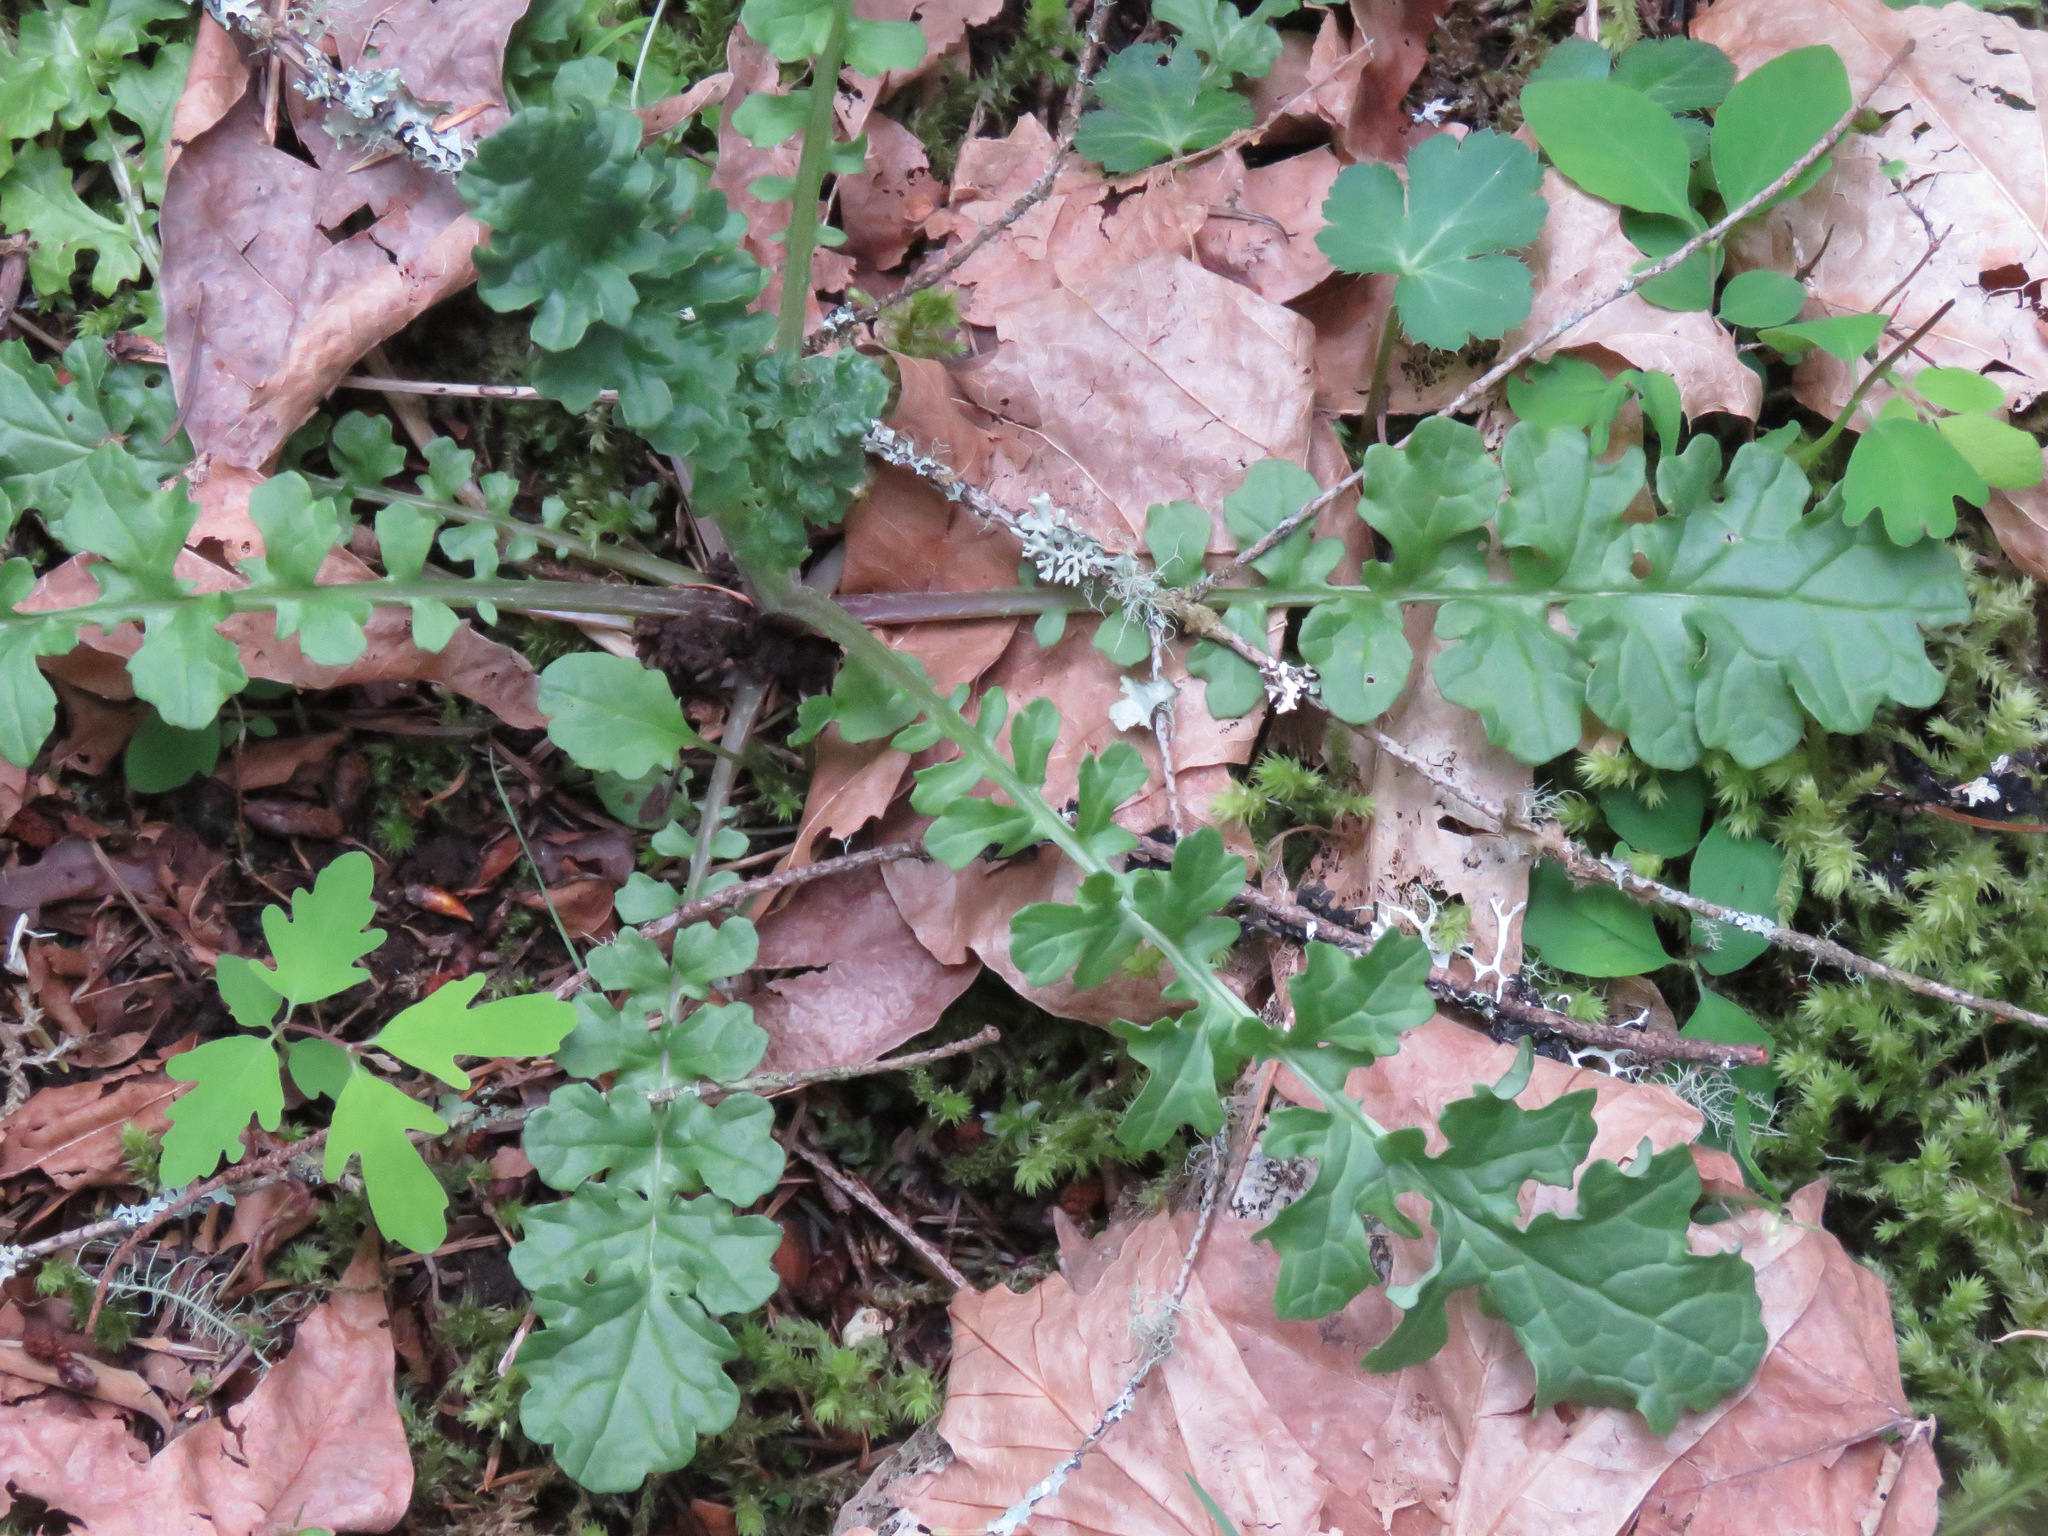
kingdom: Plantae
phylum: Tracheophyta
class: Magnoliopsida
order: Asterales
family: Asteraceae
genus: Jacobaea
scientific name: Jacobaea vulgaris
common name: Stinking willie
